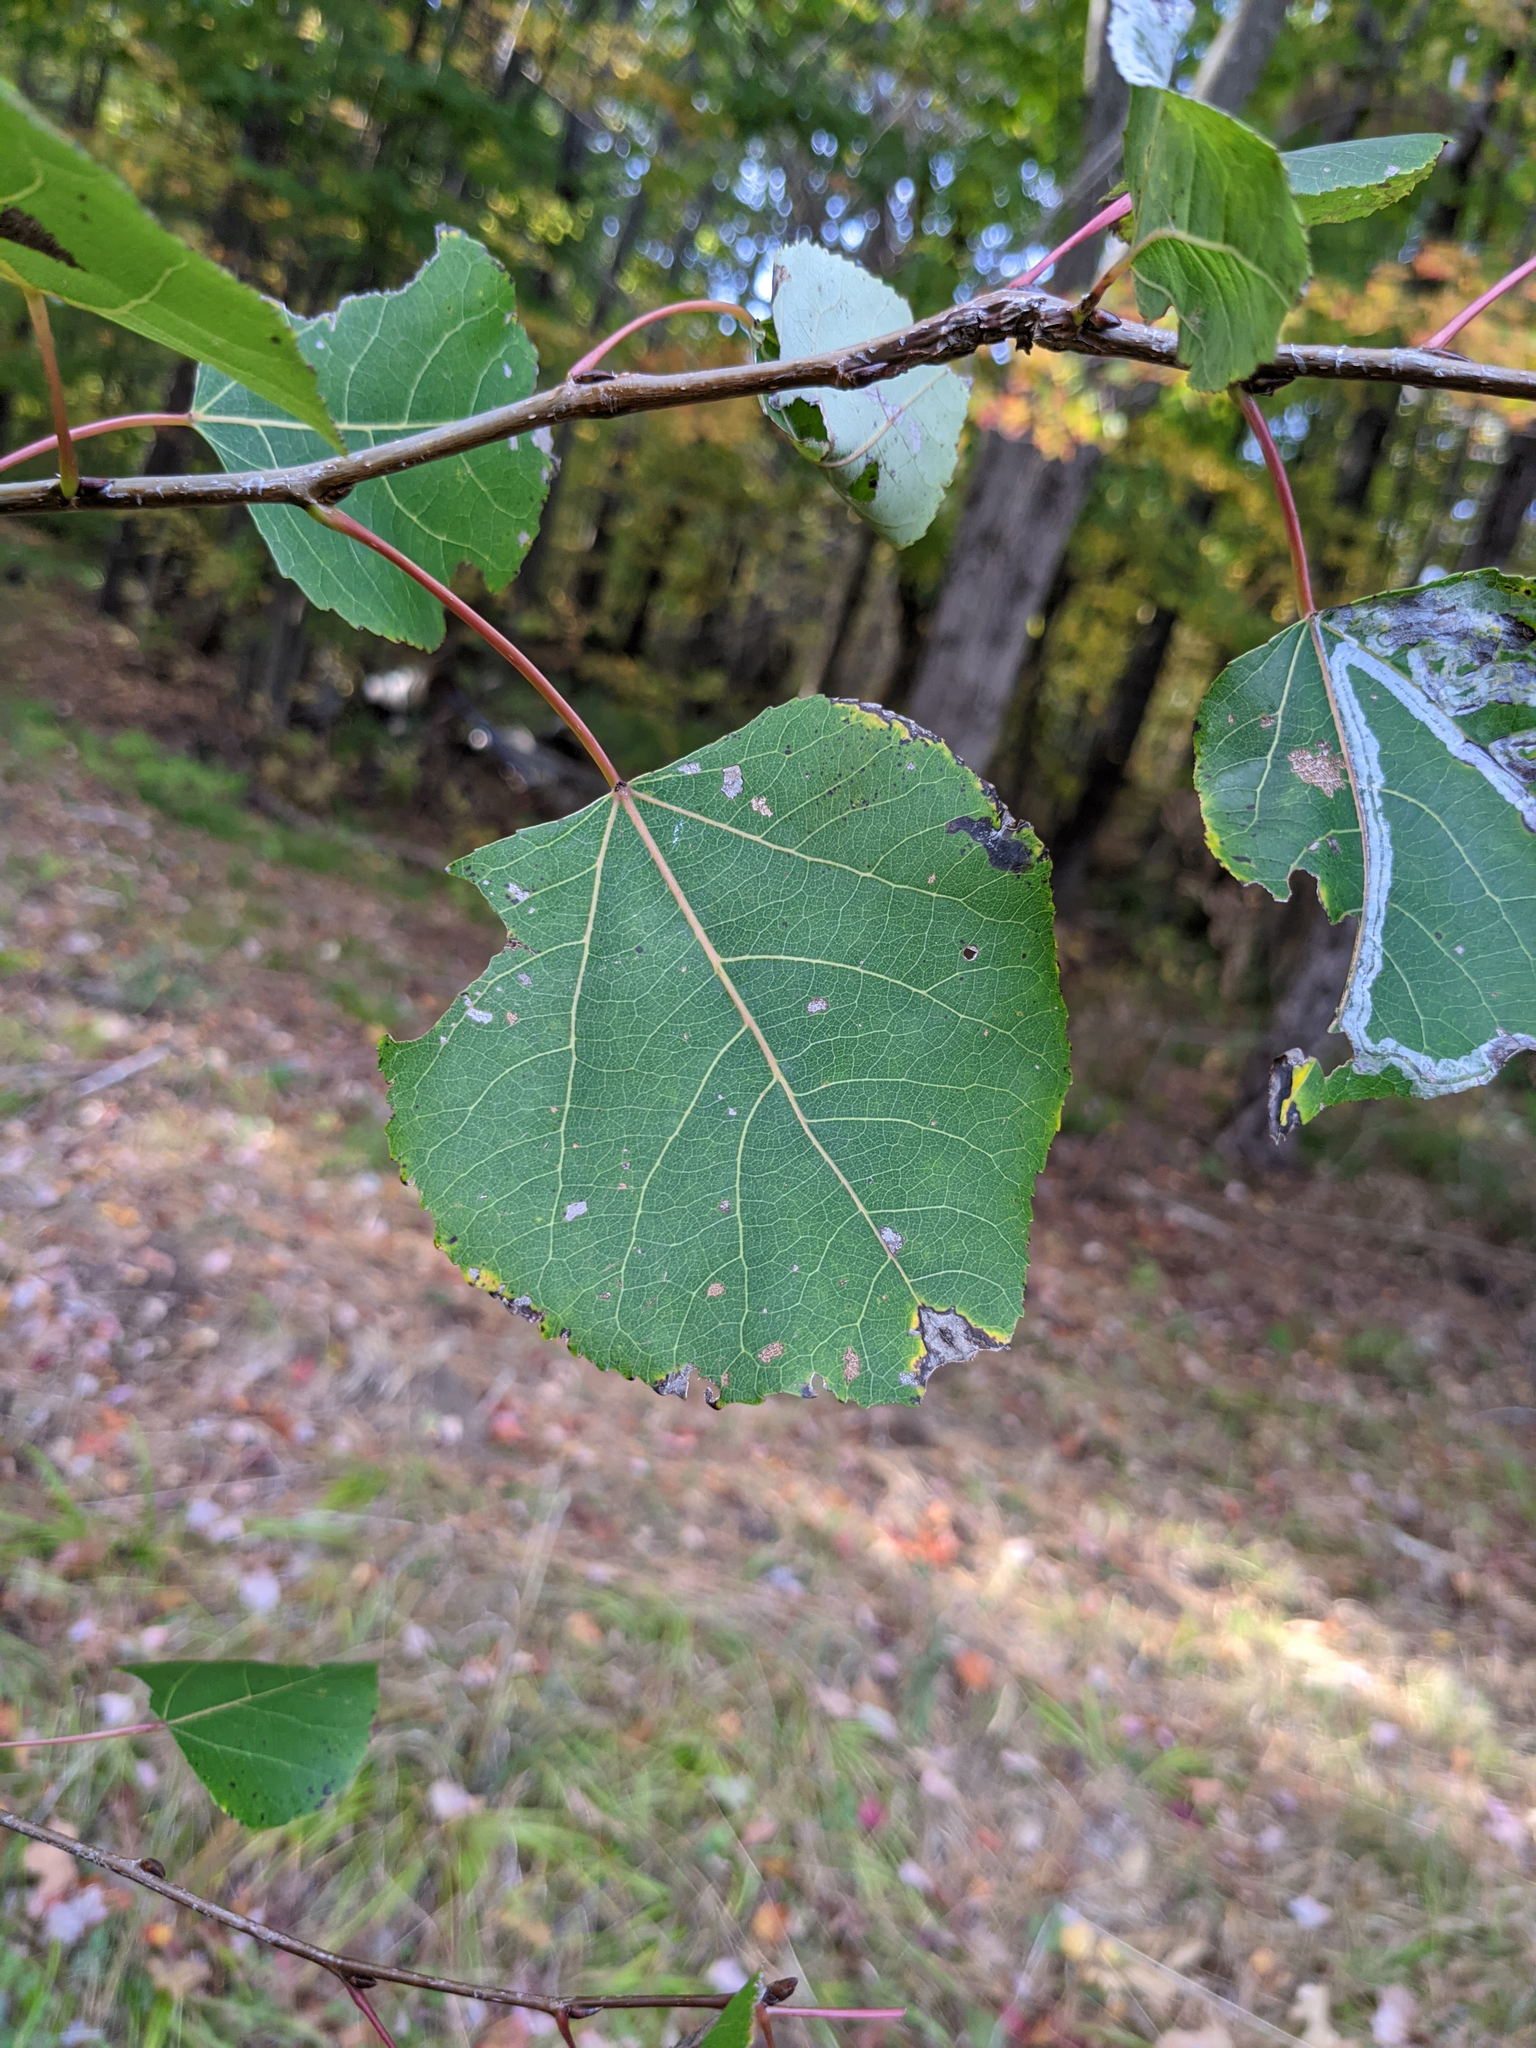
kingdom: Plantae
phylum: Tracheophyta
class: Magnoliopsida
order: Malpighiales
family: Salicaceae
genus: Populus
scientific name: Populus tremuloides
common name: Quaking aspen
